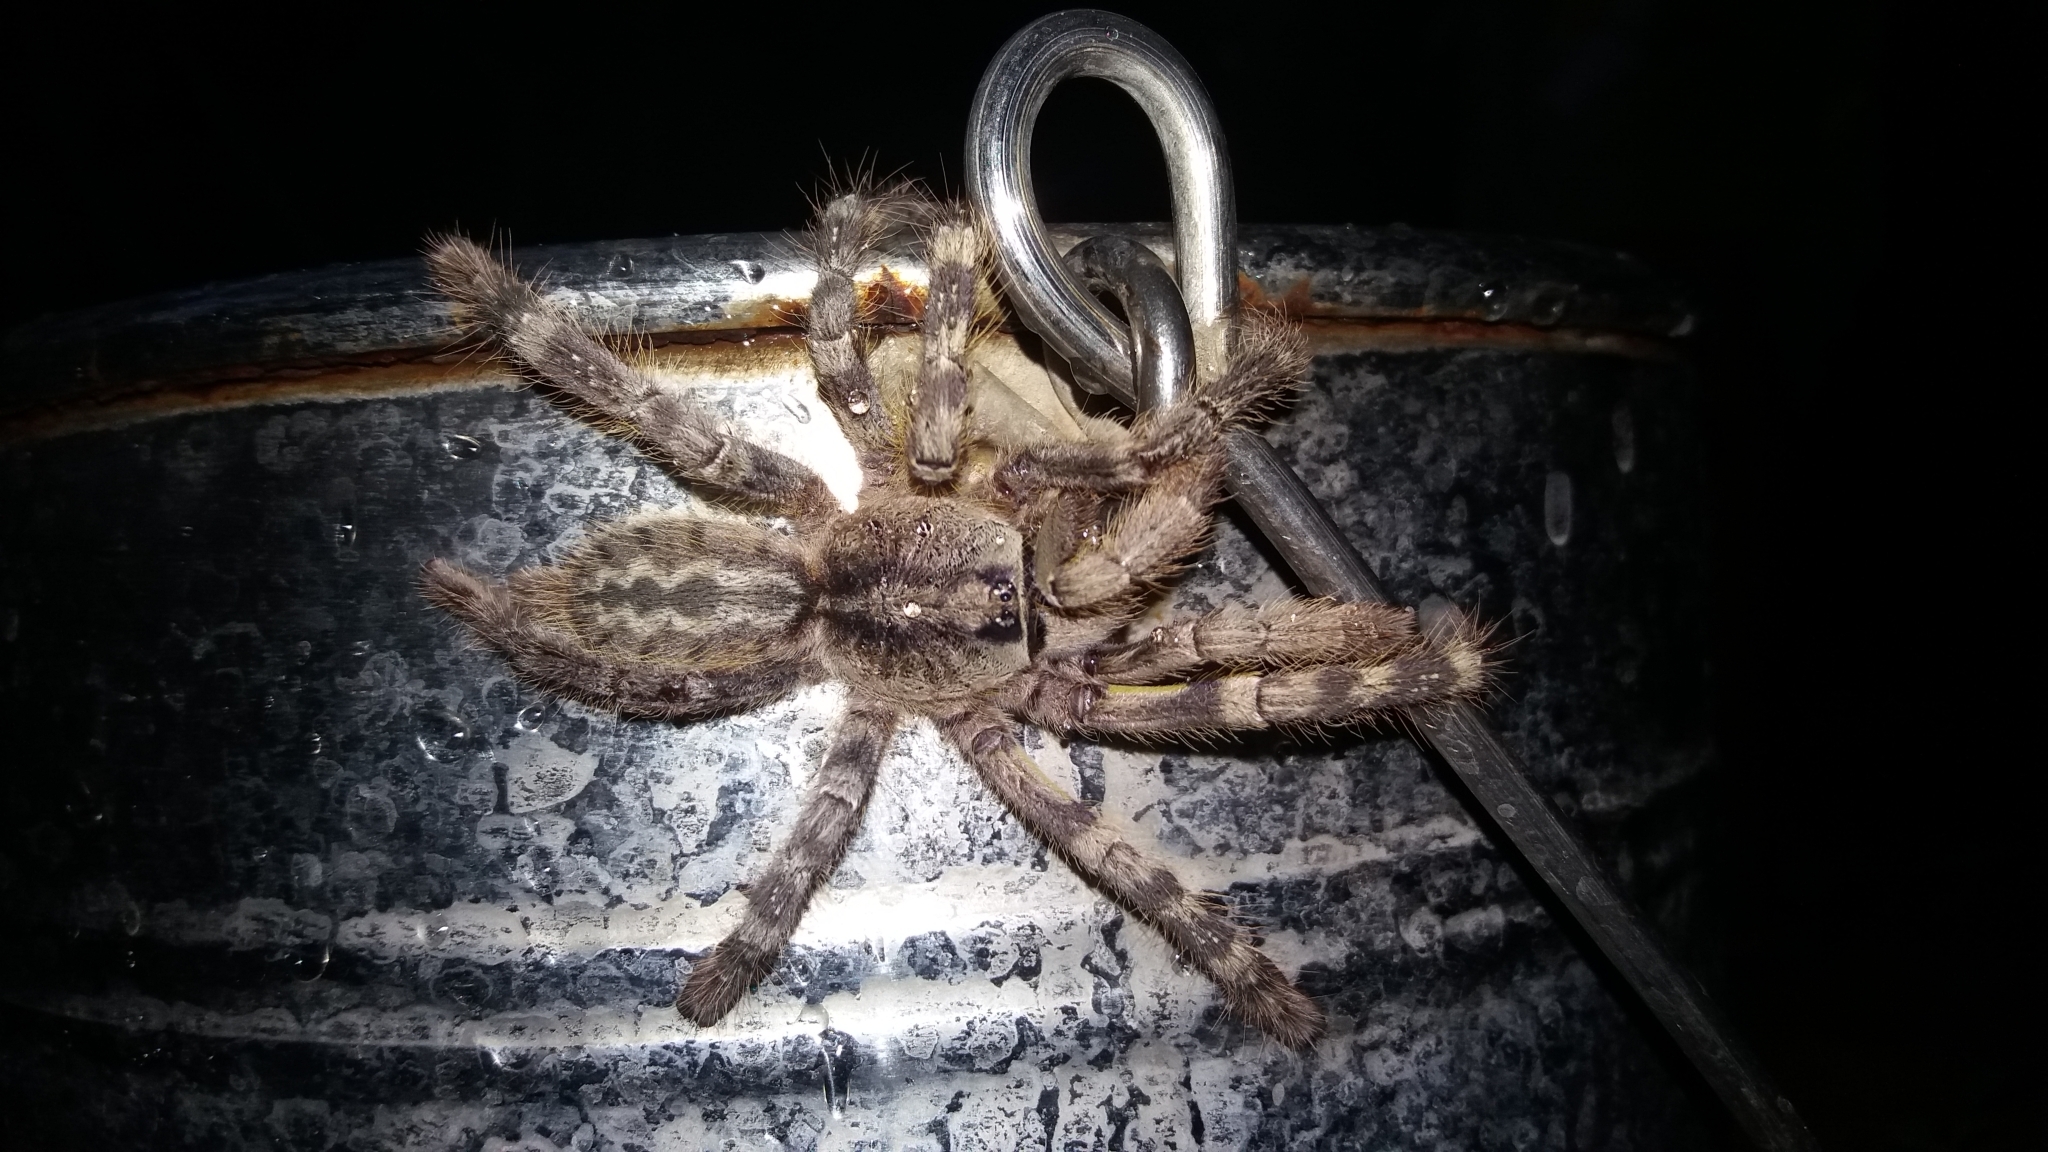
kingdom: Animalia
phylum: Arthropoda
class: Arachnida
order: Araneae
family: Theraphosidae
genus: Poecilotheria
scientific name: Poecilotheria hanumavilasumica
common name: Rameshwaram ornamental
